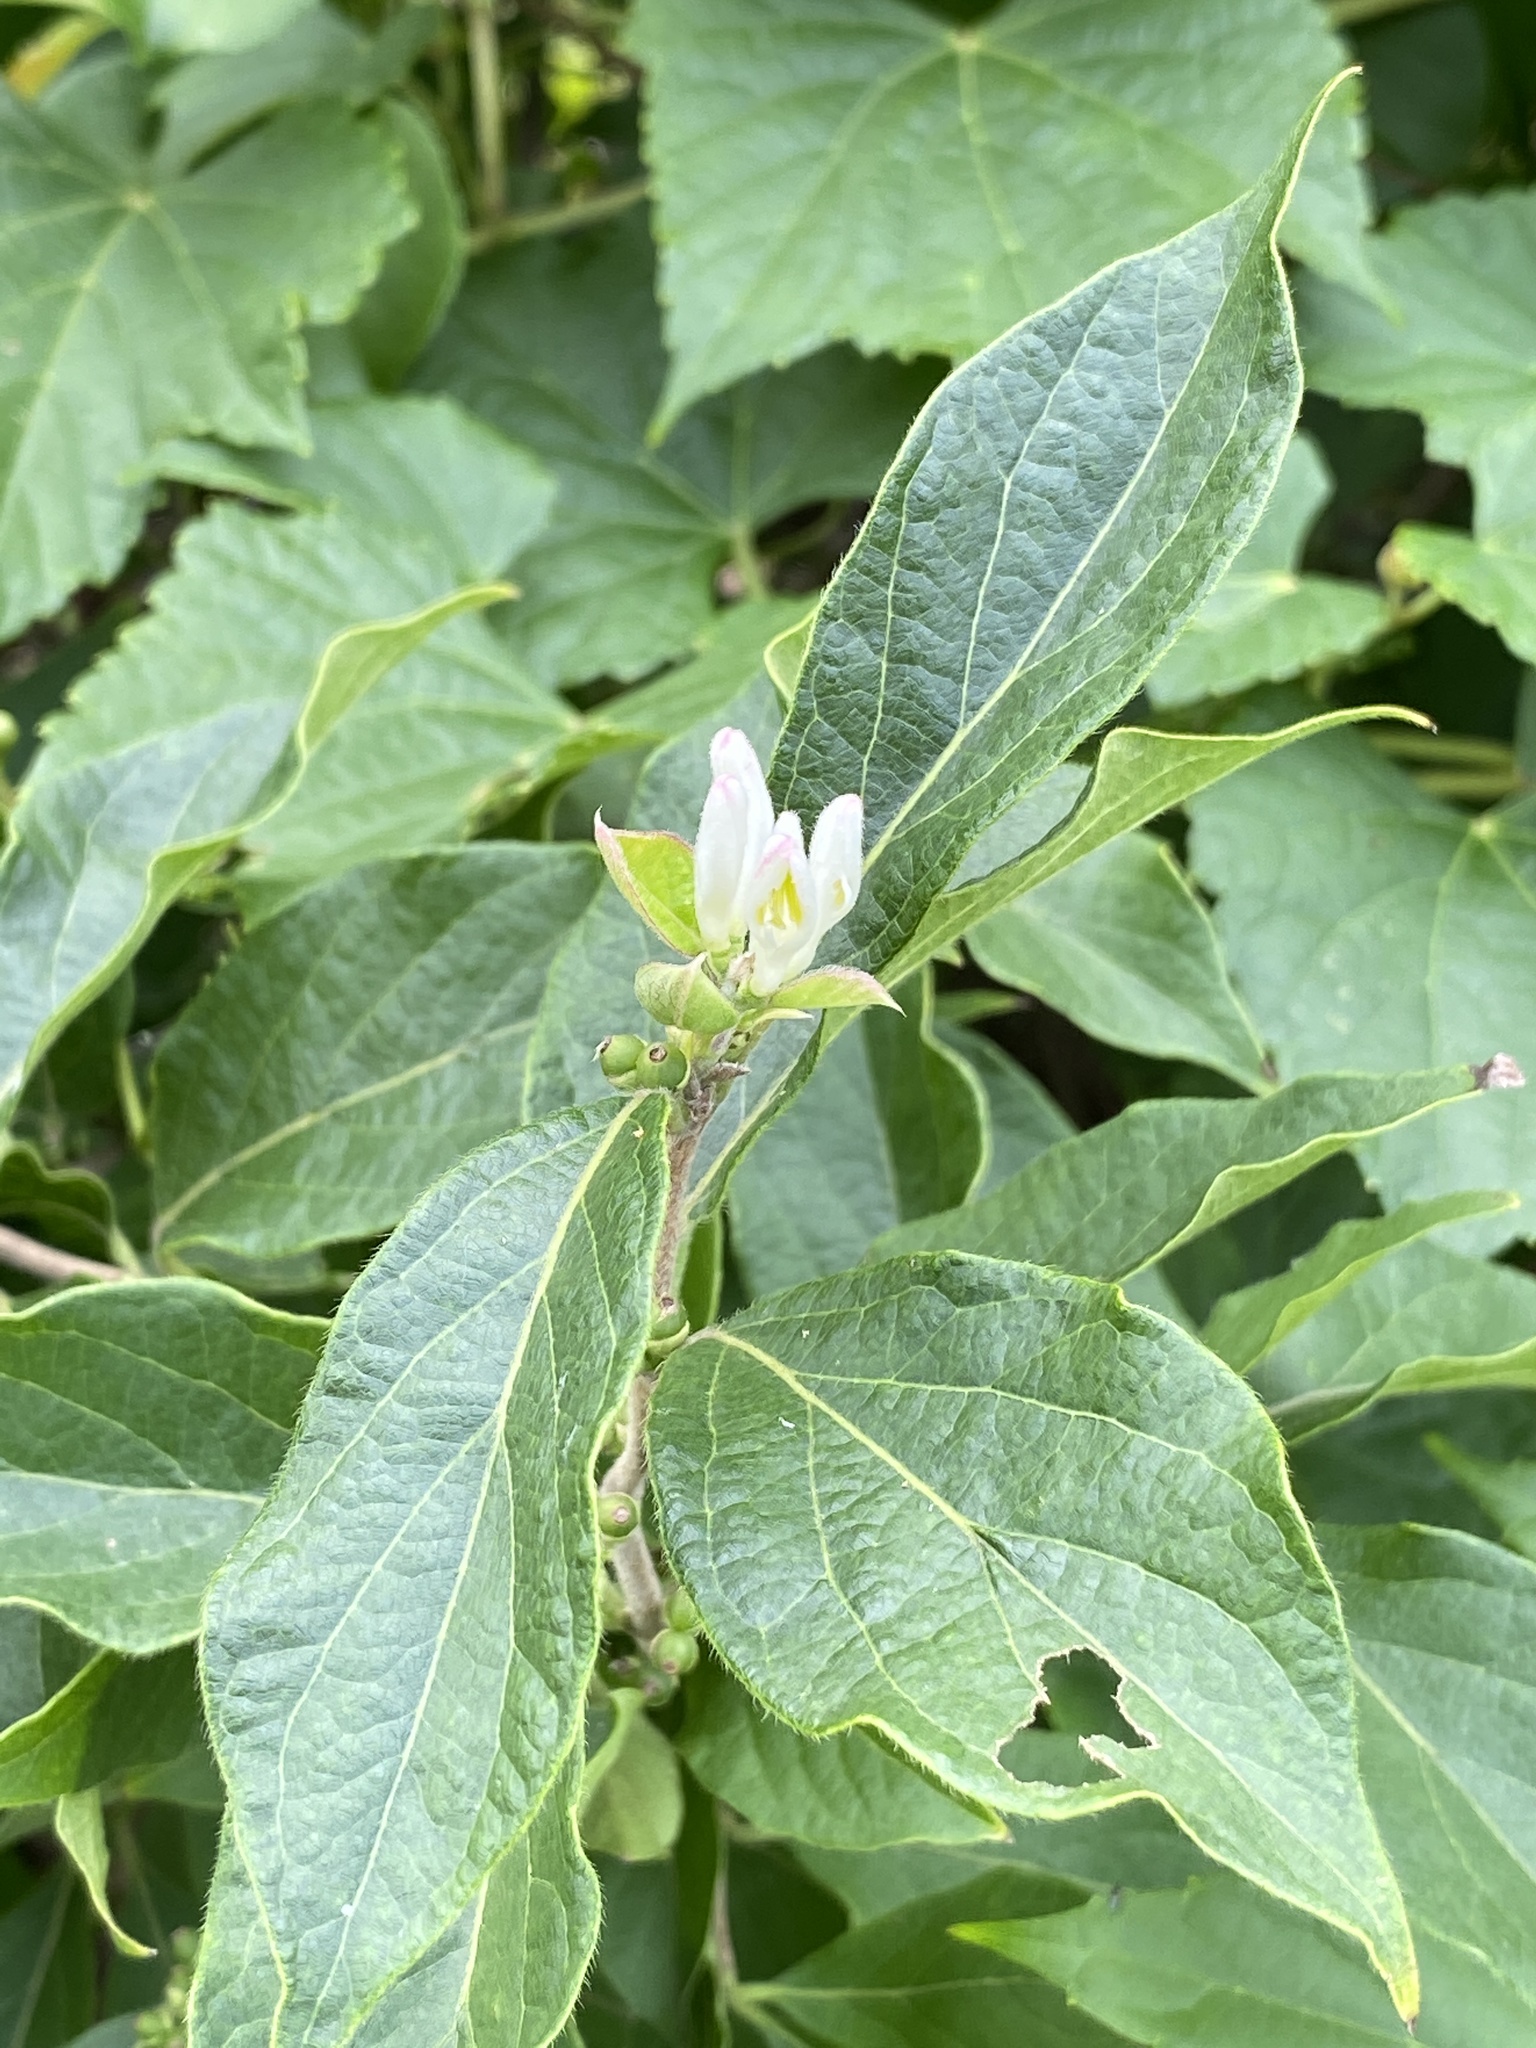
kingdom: Plantae
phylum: Tracheophyta
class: Magnoliopsida
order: Dipsacales
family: Caprifoliaceae
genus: Lonicera
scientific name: Lonicera maackii
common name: Amur honeysuckle
